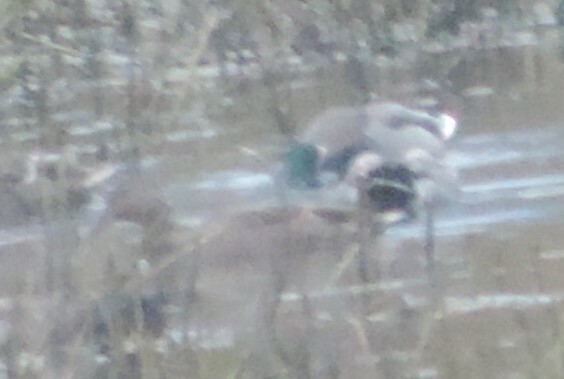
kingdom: Animalia
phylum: Chordata
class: Aves
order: Anseriformes
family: Anatidae
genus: Anas
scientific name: Anas platyrhynchos
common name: Mallard
